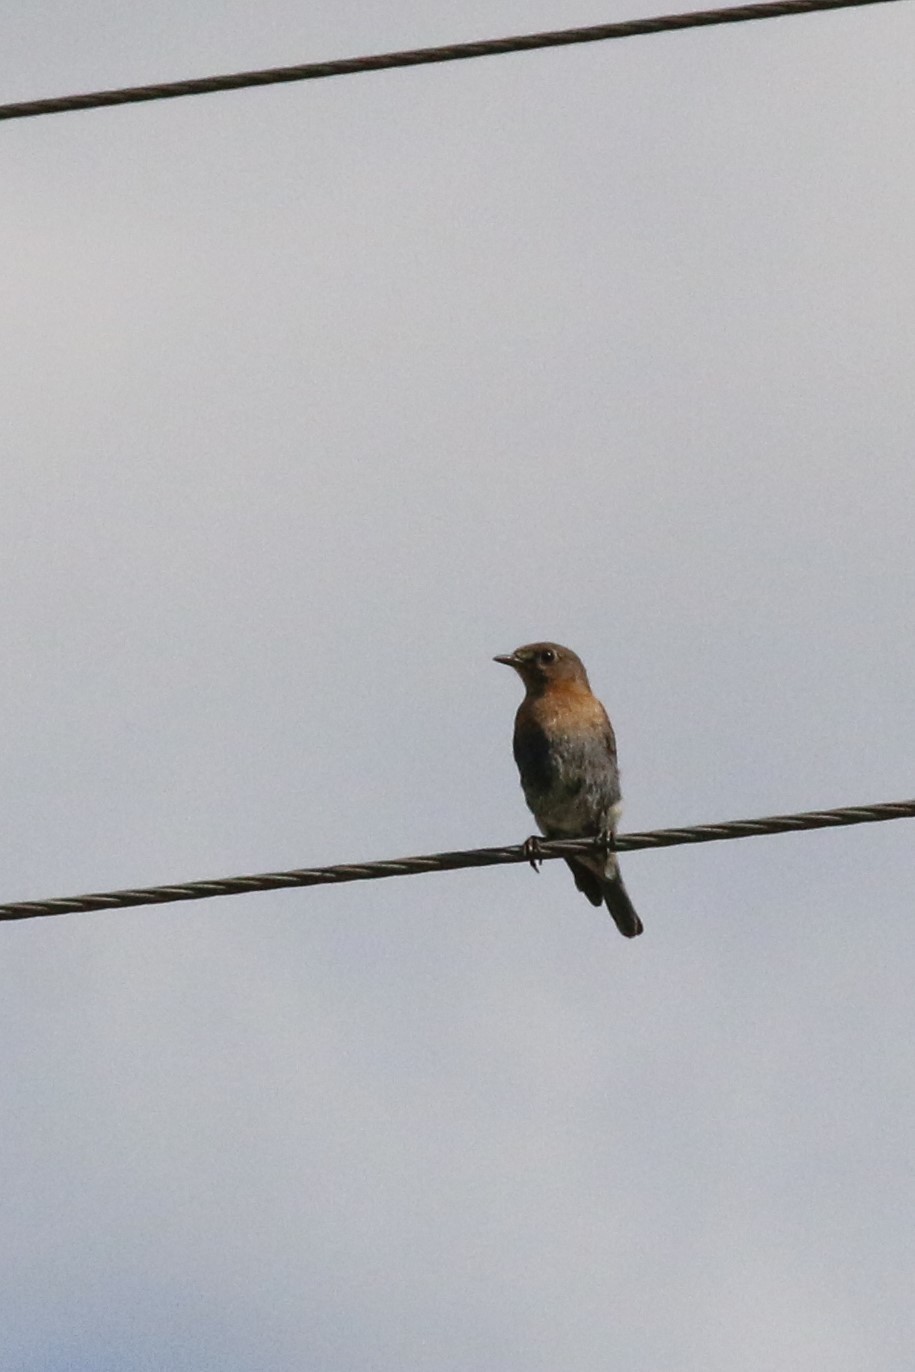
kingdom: Animalia
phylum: Chordata
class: Aves
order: Passeriformes
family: Turdidae
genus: Sialia
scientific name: Sialia sialis
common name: Eastern bluebird
